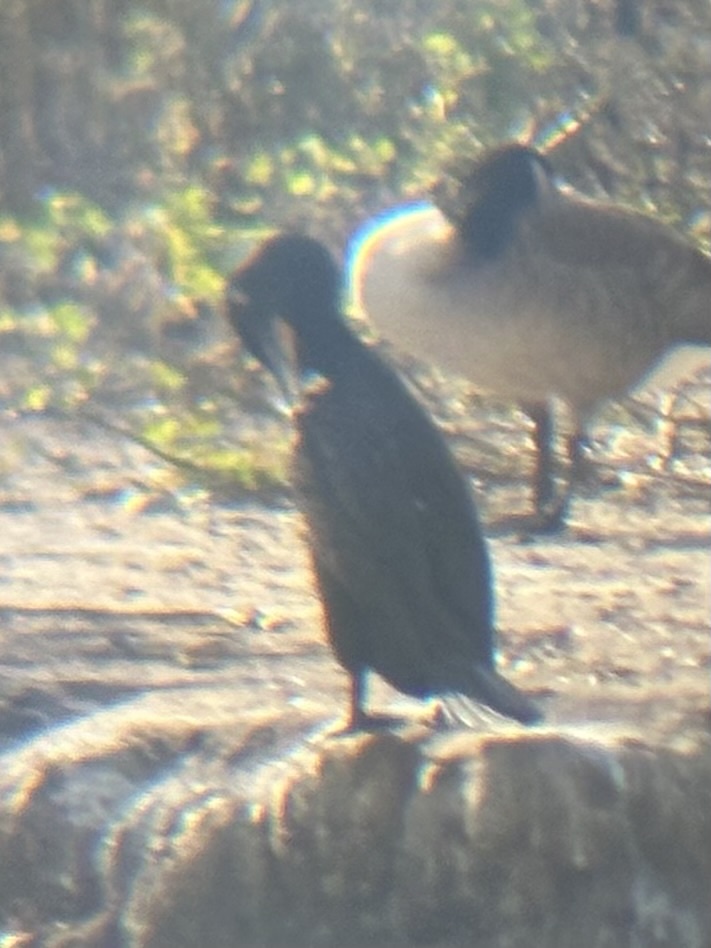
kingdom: Animalia
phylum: Chordata
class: Aves
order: Suliformes
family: Phalacrocoracidae
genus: Phalacrocorax
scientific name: Phalacrocorax auritus
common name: Double-crested cormorant
